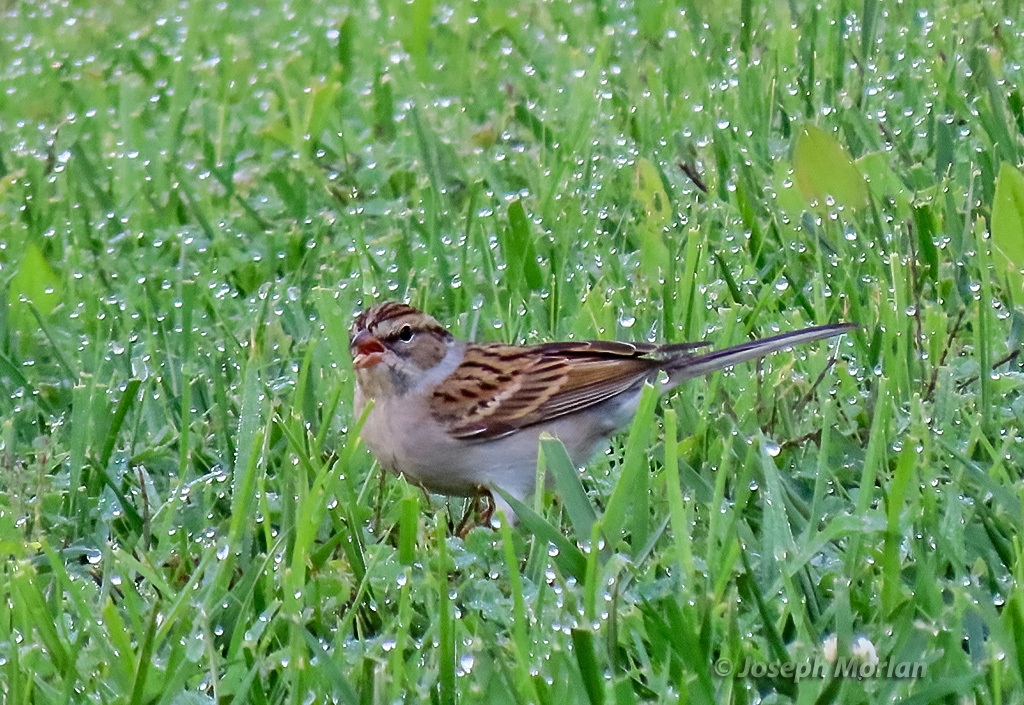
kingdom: Animalia
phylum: Chordata
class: Aves
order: Passeriformes
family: Passerellidae
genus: Spizella
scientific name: Spizella passerina
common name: Chipping sparrow
